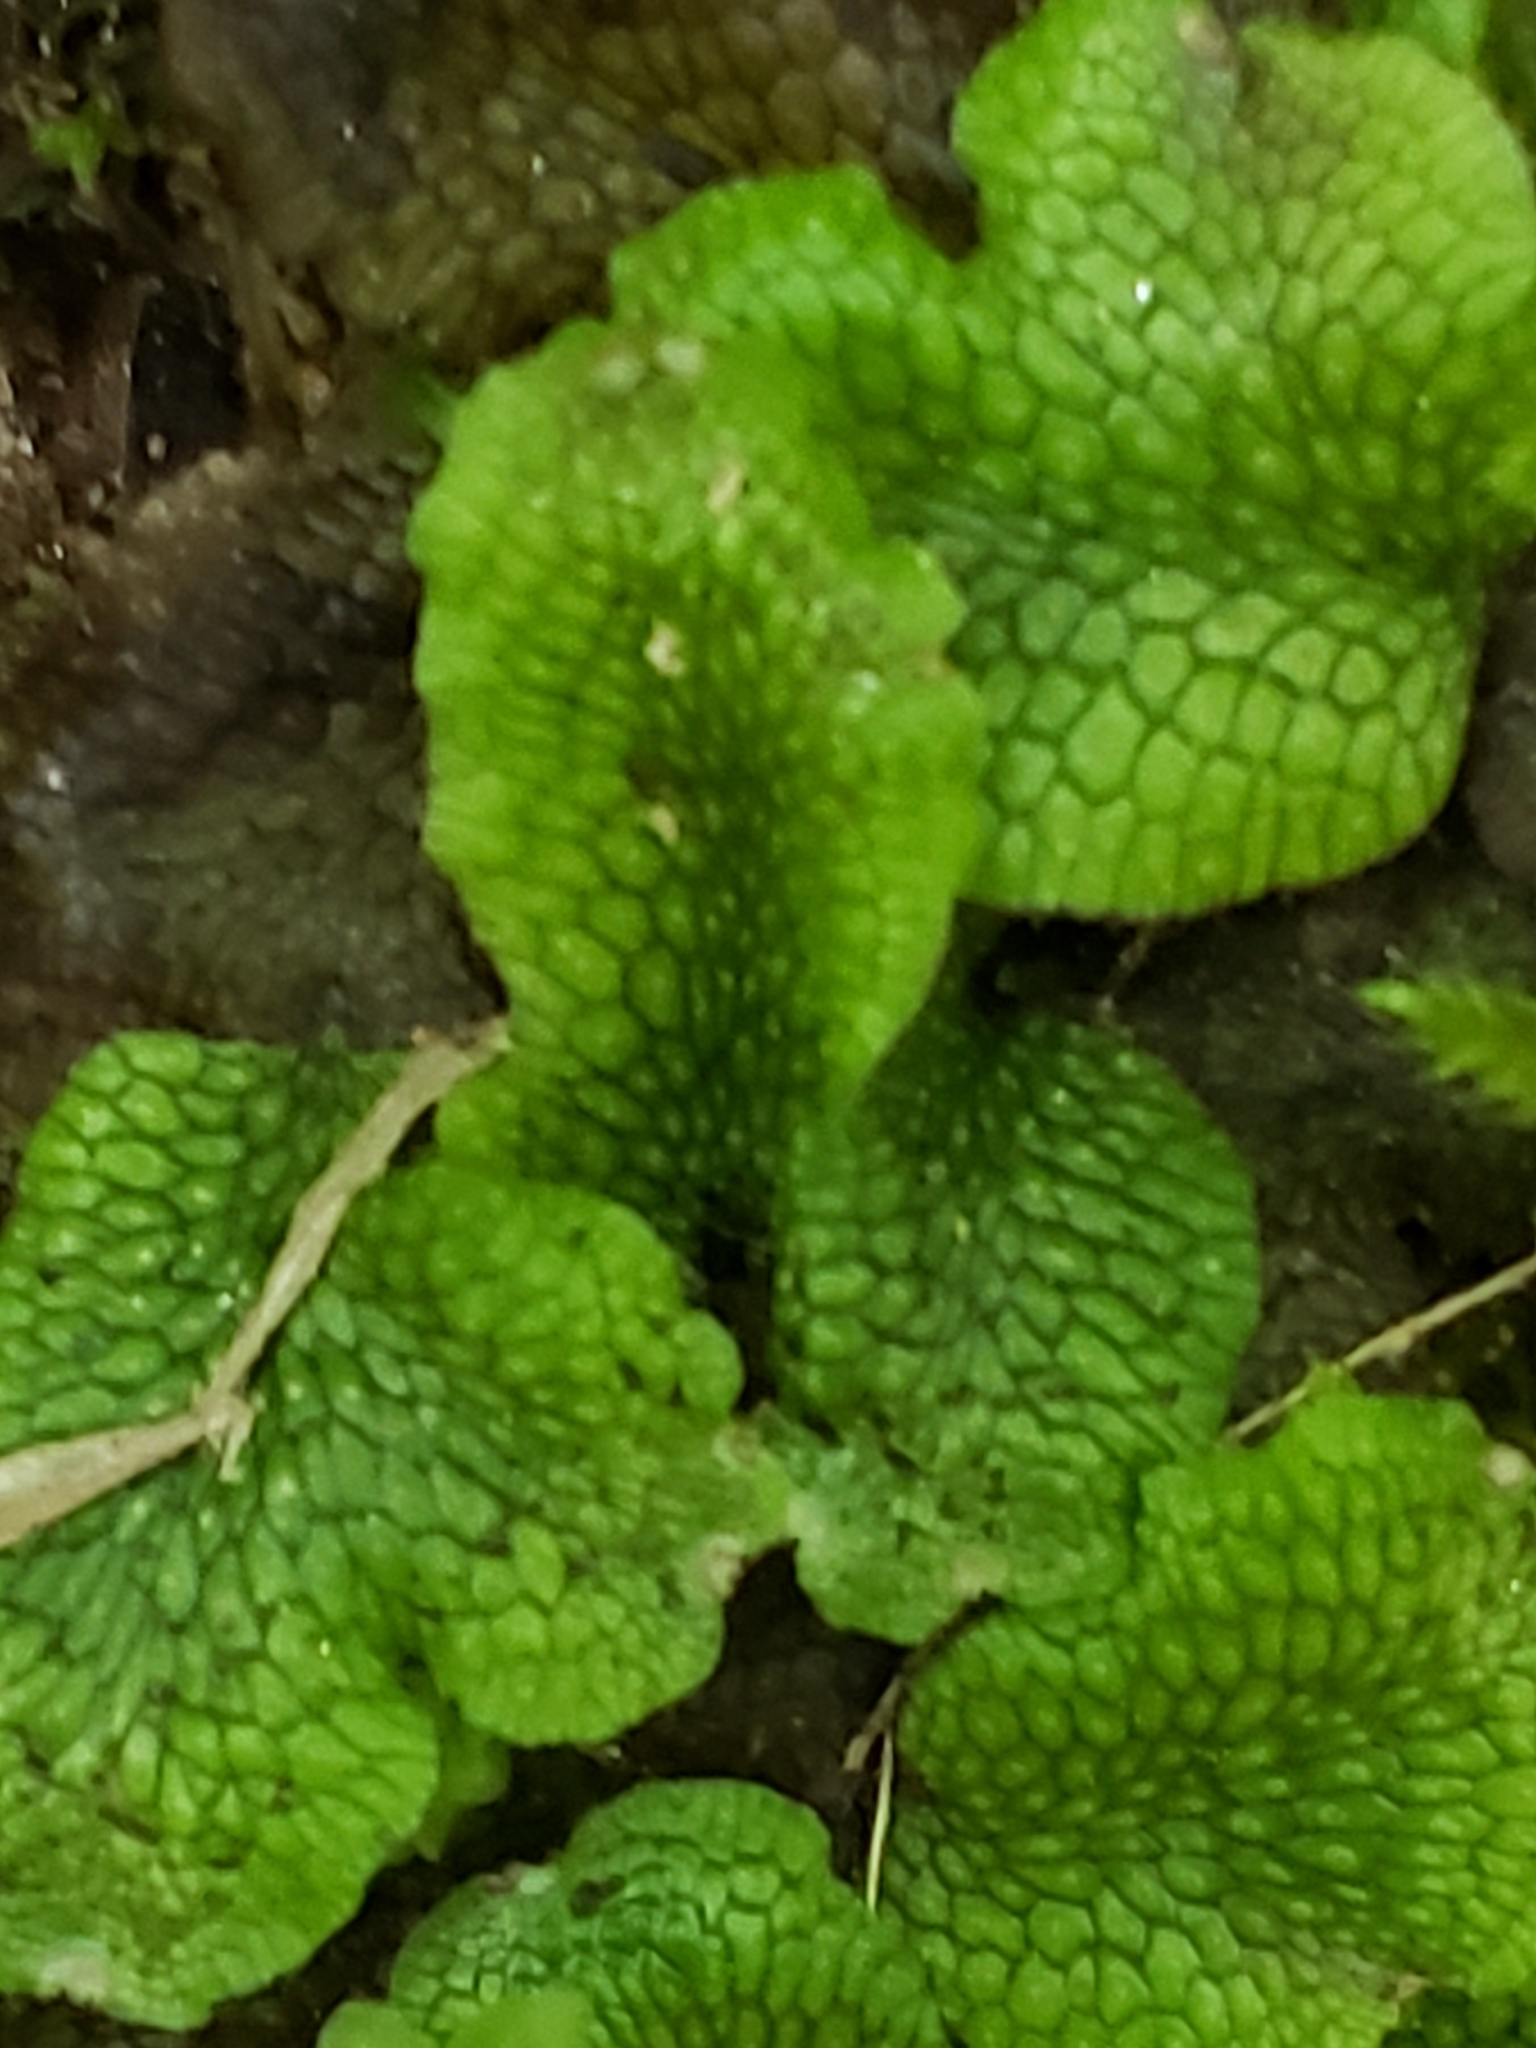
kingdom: Plantae
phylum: Marchantiophyta
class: Marchantiopsida
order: Marchantiales
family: Conocephalaceae
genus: Conocephalum
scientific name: Conocephalum salebrosum
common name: Cat-tongue liverwort
